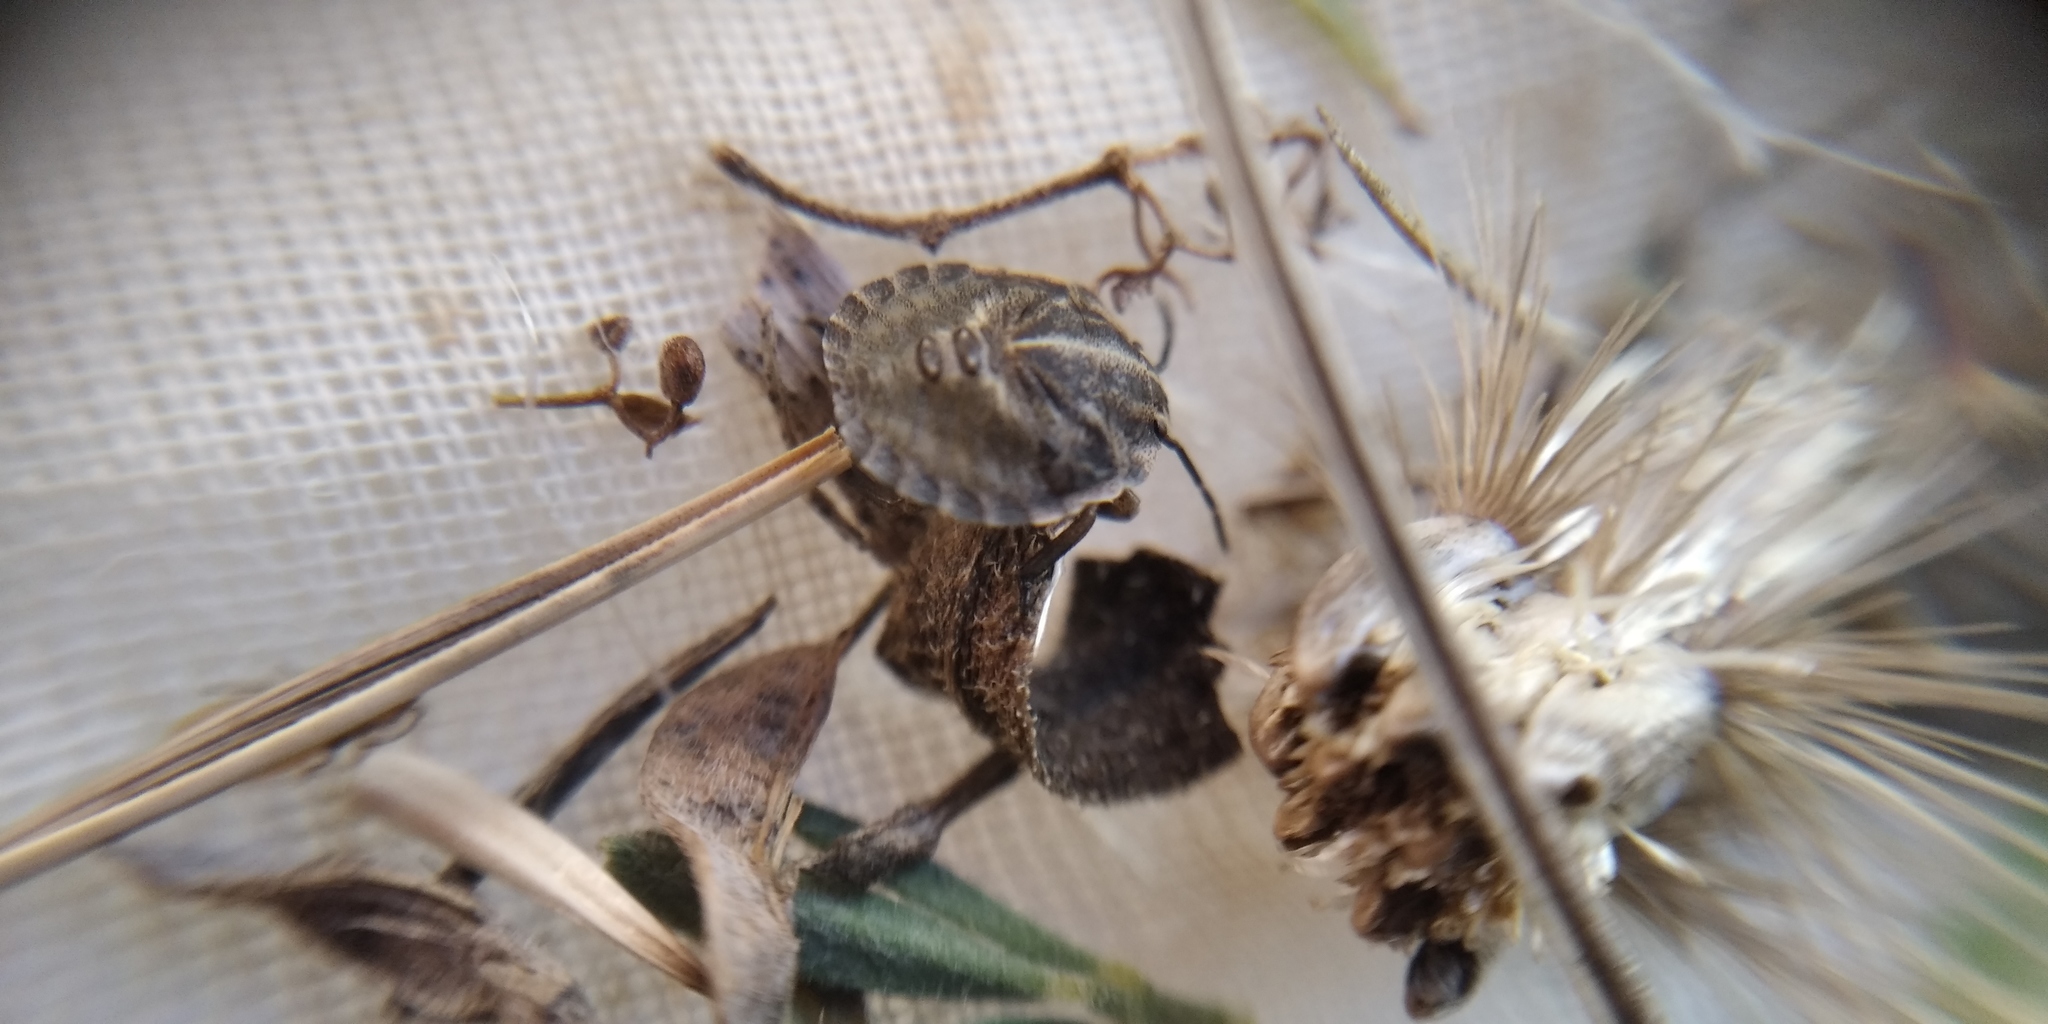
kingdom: Animalia
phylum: Arthropoda
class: Insecta
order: Hemiptera
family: Pentatomidae
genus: Graphosoma
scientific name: Graphosoma italicum
